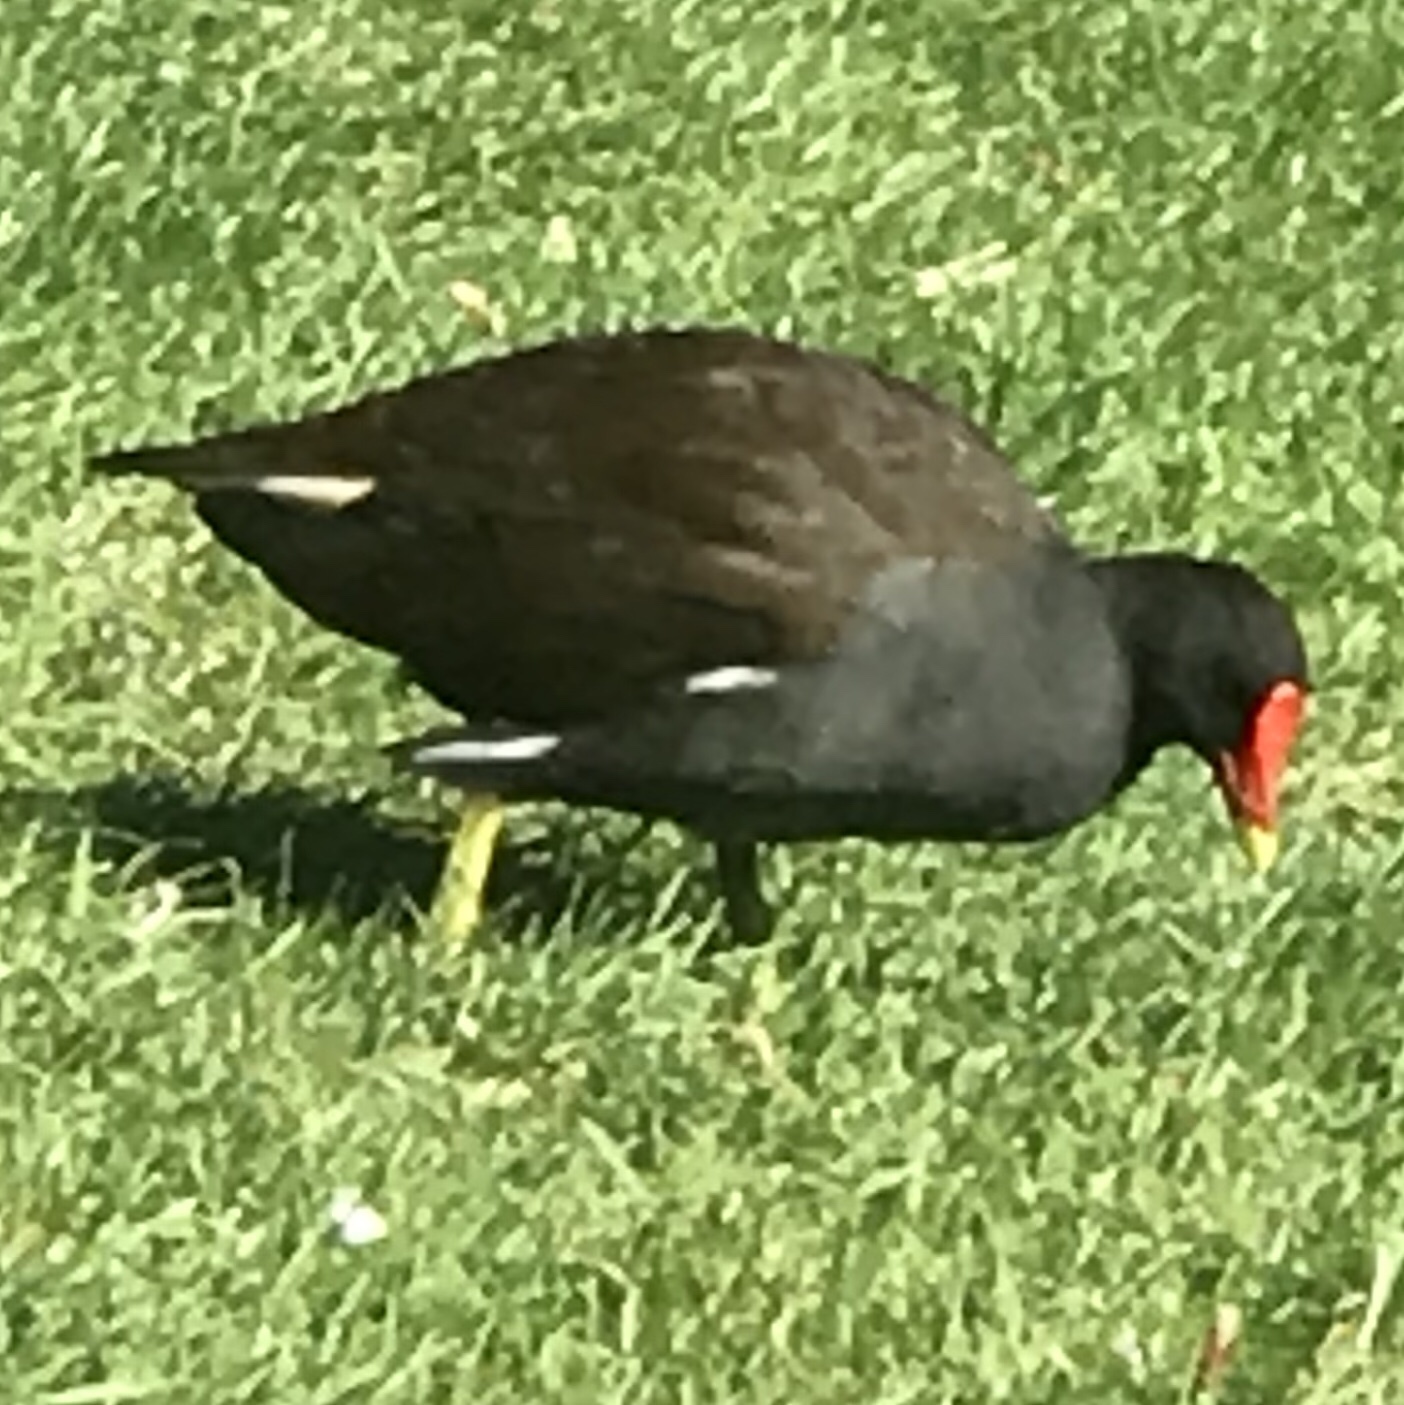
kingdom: Animalia
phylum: Chordata
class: Aves
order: Gruiformes
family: Rallidae
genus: Gallinula
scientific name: Gallinula chloropus
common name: Common moorhen
